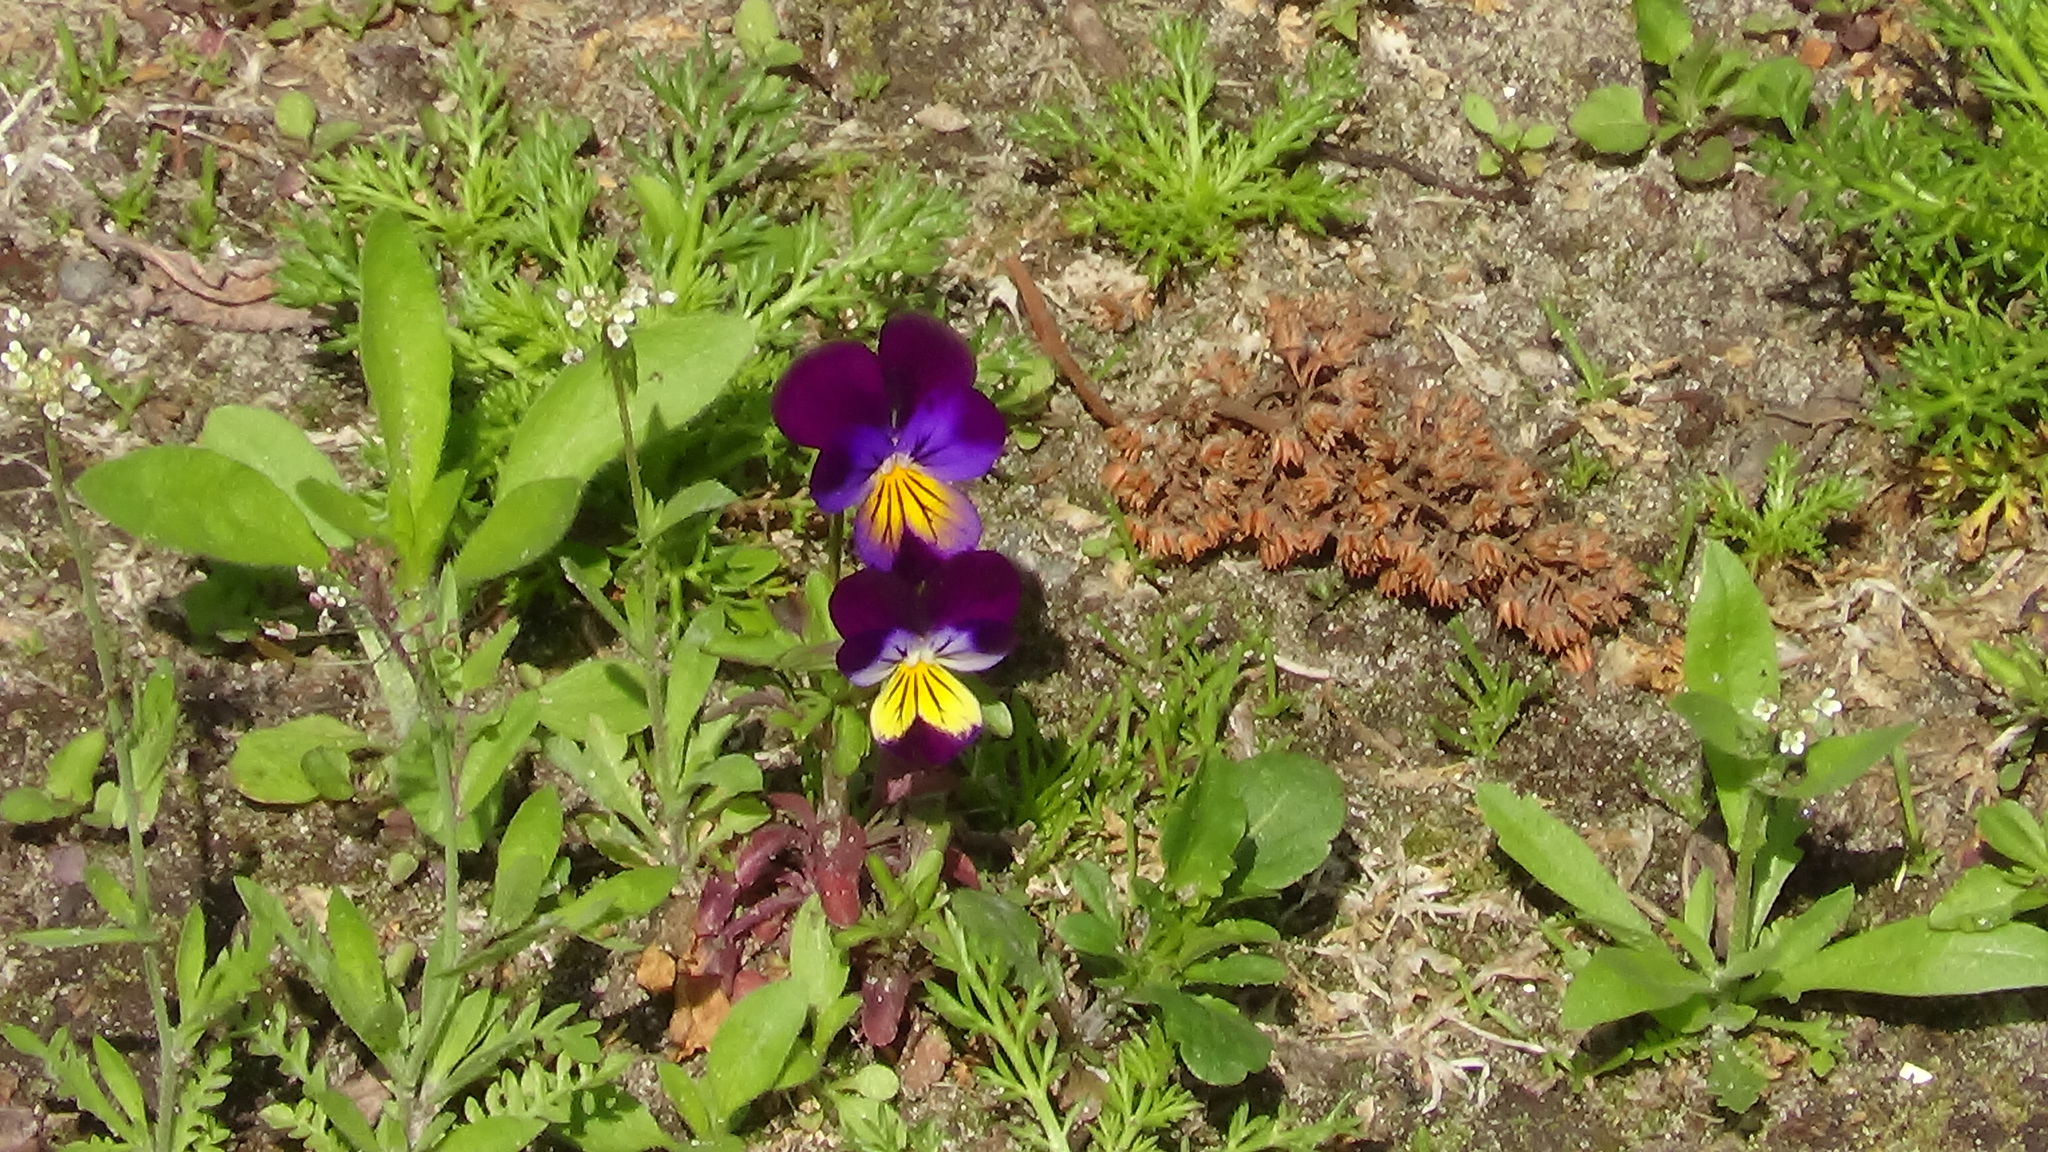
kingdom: Plantae
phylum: Tracheophyta
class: Magnoliopsida
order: Malpighiales
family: Violaceae
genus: Viola
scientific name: Viola wittrockiana
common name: Garden pansy
